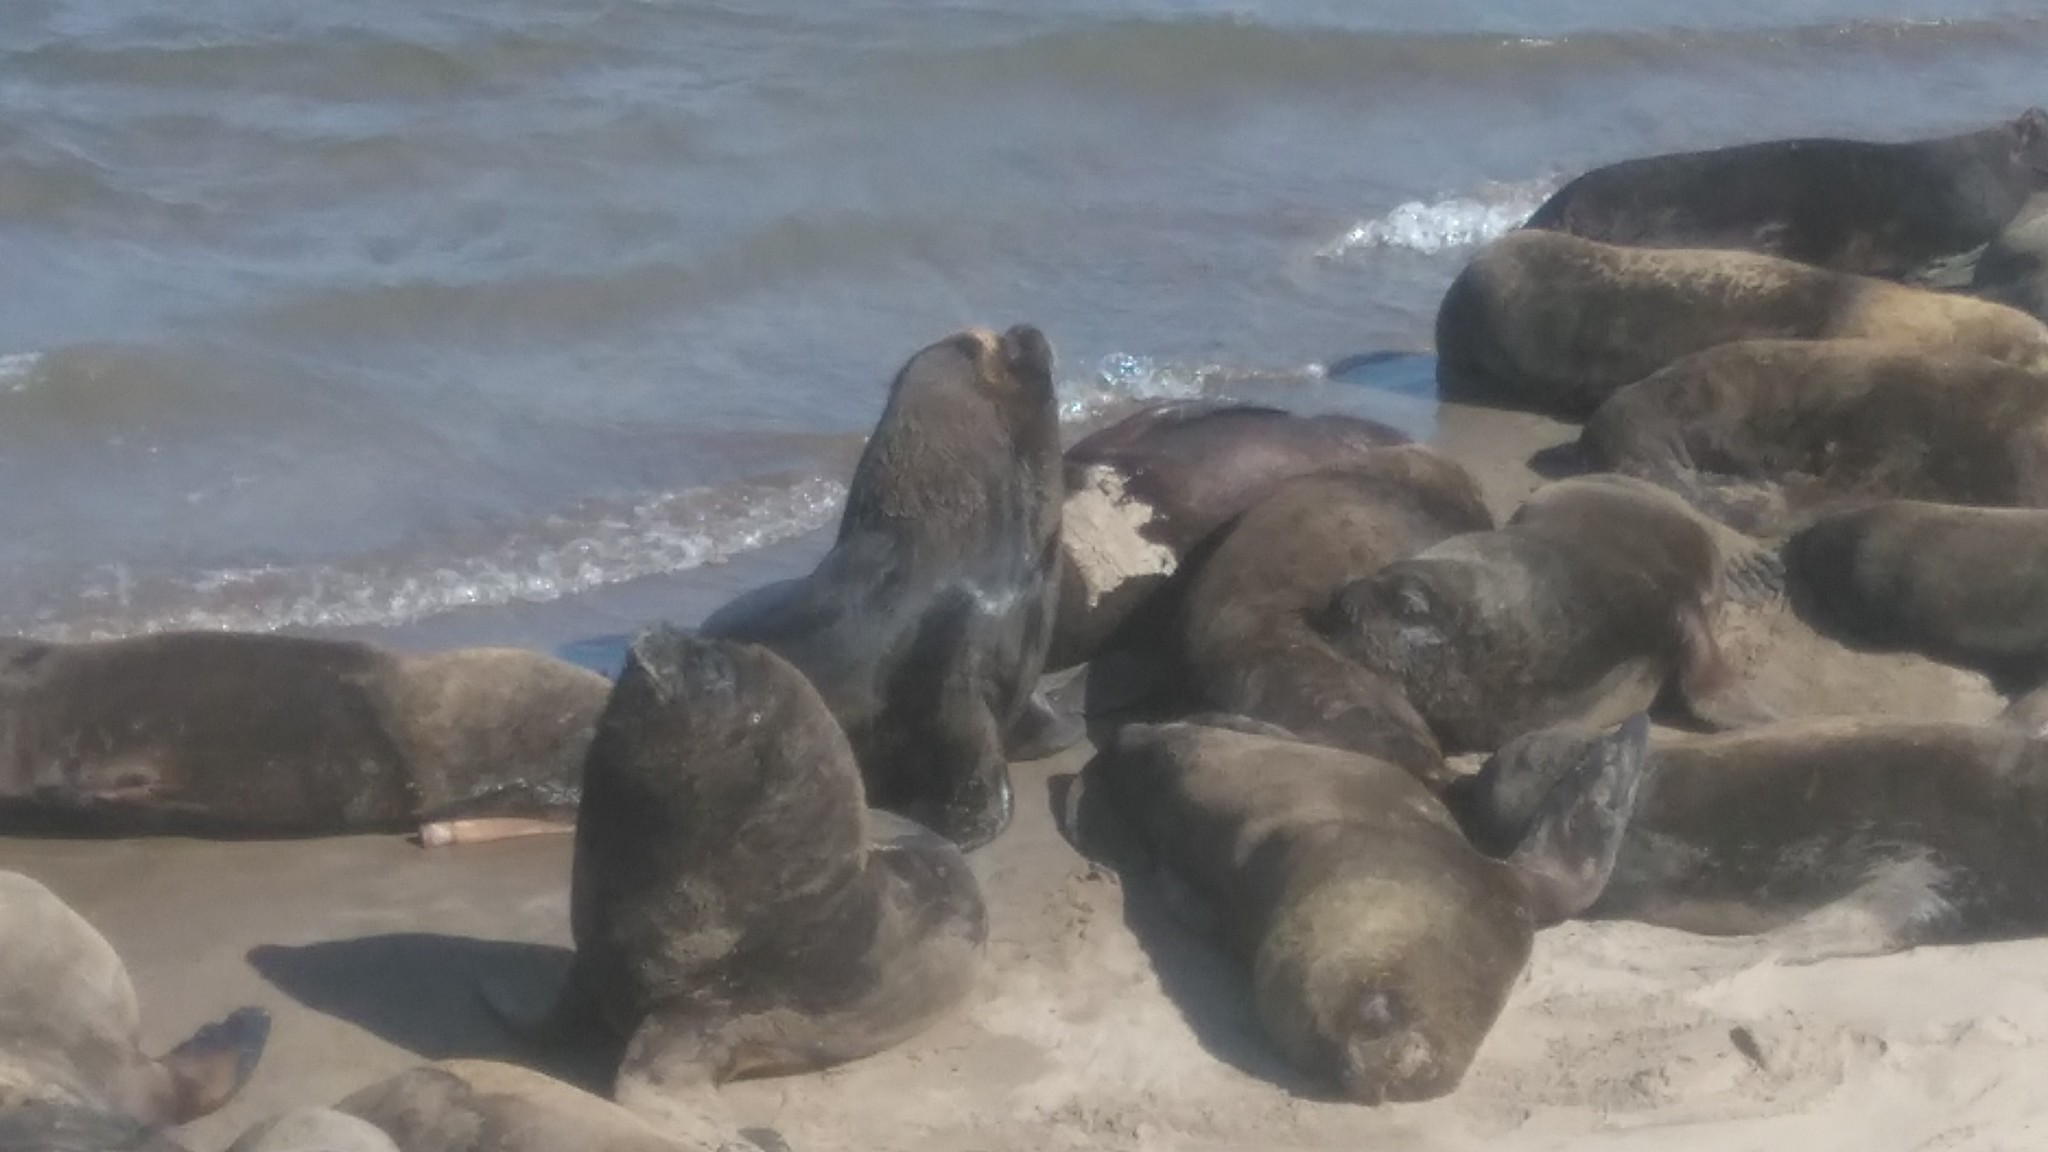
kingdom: Animalia
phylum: Chordata
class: Mammalia
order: Carnivora
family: Otariidae
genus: Otaria
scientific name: Otaria byronia
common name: South american sea lion
